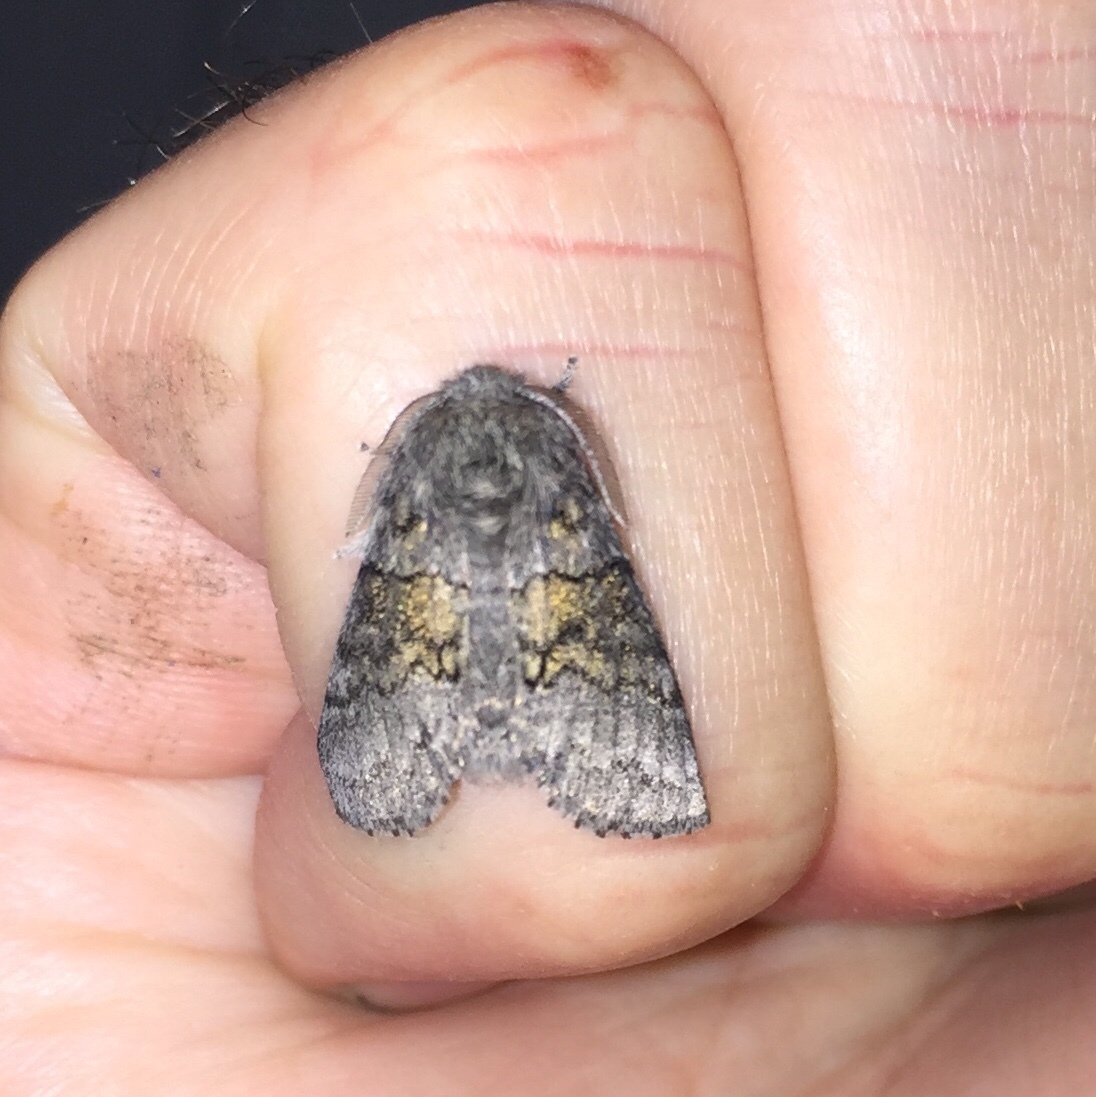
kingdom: Animalia
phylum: Arthropoda
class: Insecta
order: Lepidoptera
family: Notodontidae
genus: Gluphisia
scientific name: Gluphisia septentrionis
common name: Common gluphisia
